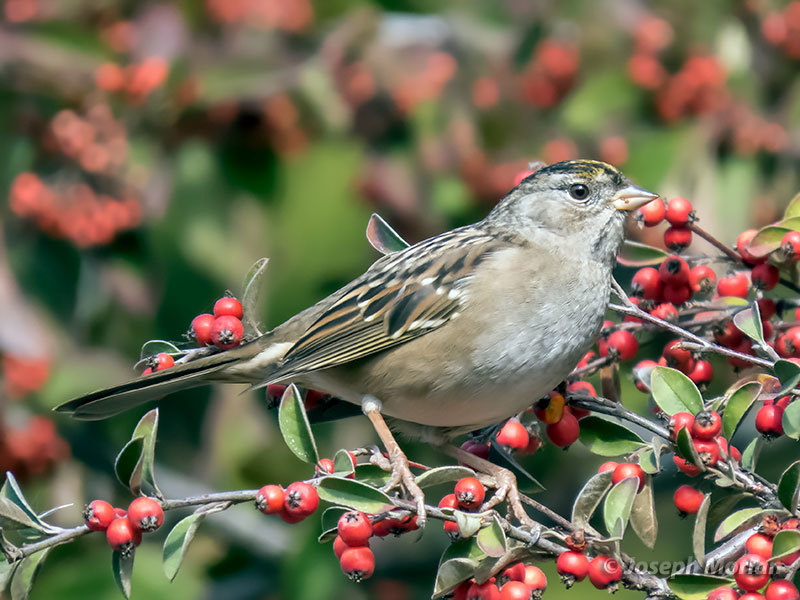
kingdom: Animalia
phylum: Chordata
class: Aves
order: Passeriformes
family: Passerellidae
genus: Zonotrichia
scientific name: Zonotrichia atricapilla
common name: Golden-crowned sparrow
